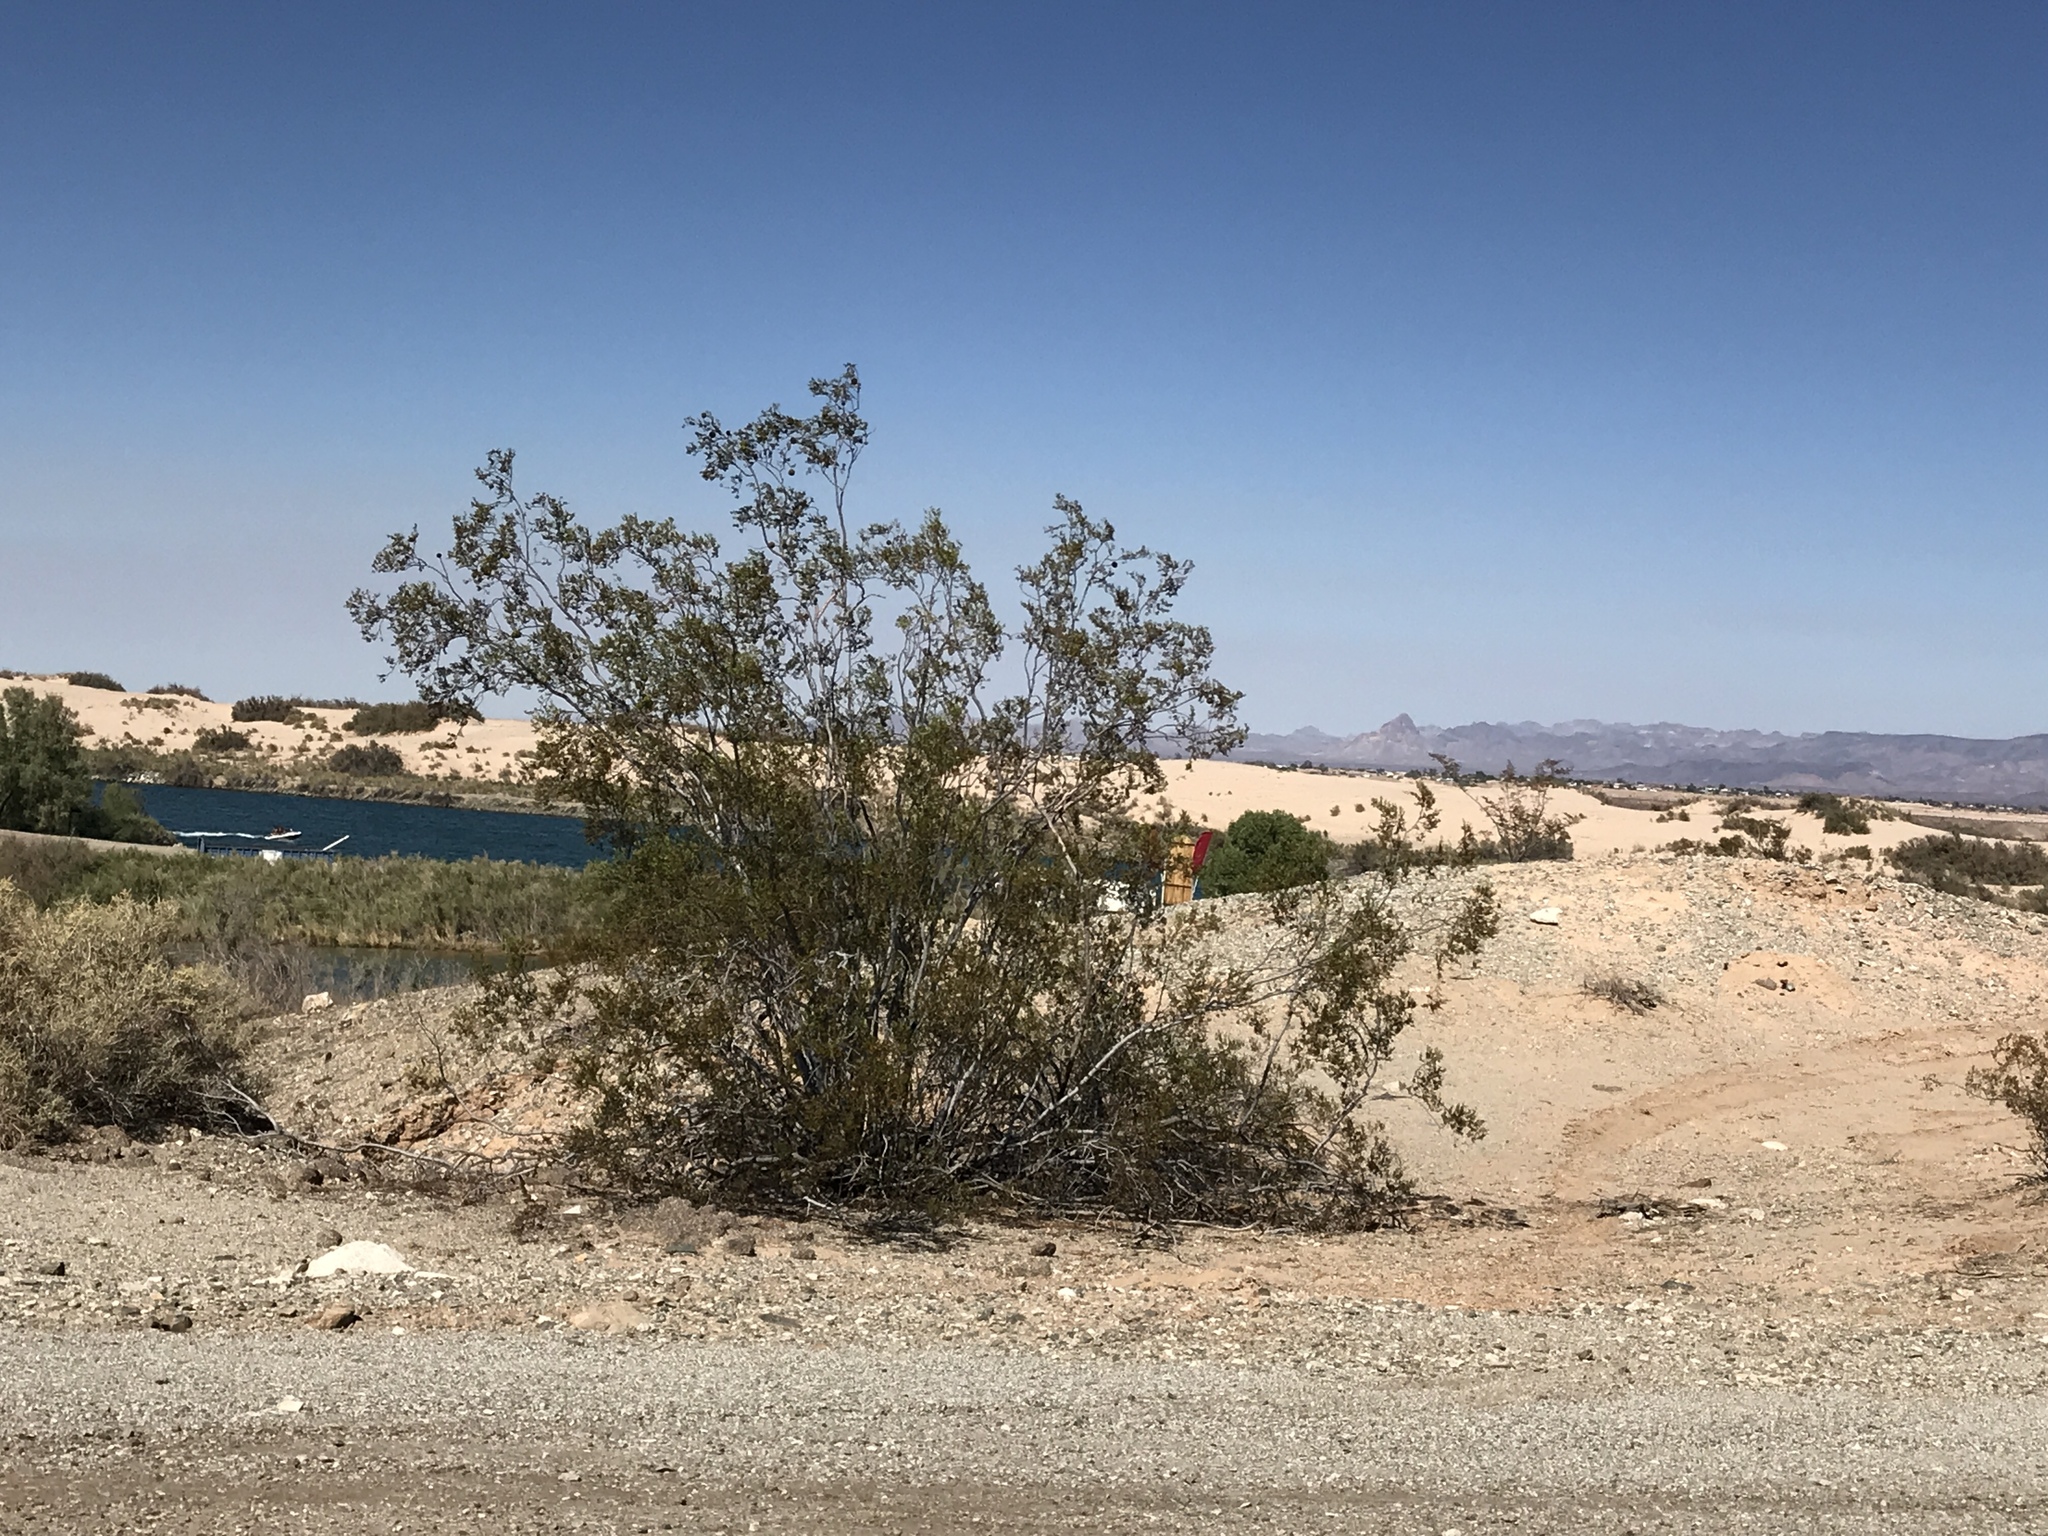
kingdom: Plantae
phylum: Tracheophyta
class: Magnoliopsida
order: Zygophyllales
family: Zygophyllaceae
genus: Larrea
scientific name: Larrea tridentata
